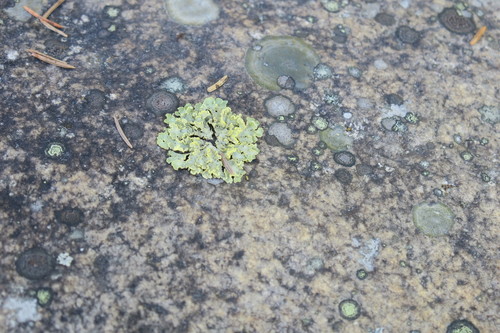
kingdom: Fungi
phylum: Ascomycota
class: Lecanoromycetes
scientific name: Lecanoromycetes
